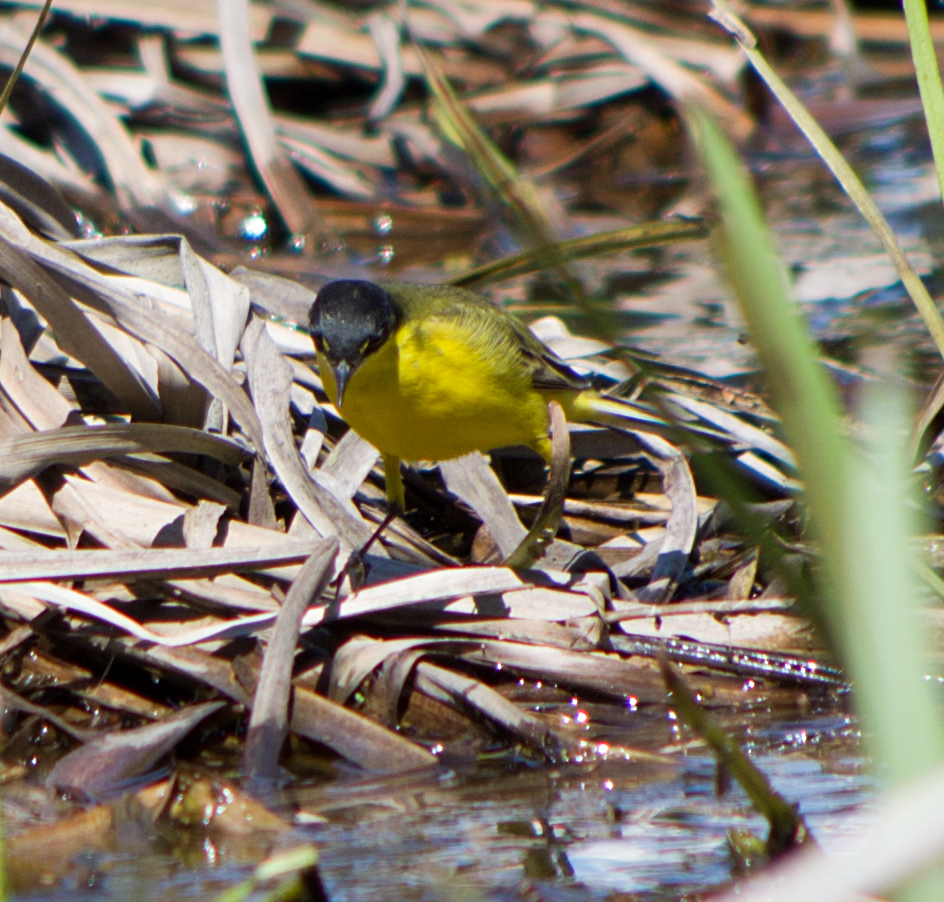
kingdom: Animalia
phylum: Chordata
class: Aves
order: Passeriformes
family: Motacillidae
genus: Motacilla
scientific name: Motacilla flava
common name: Western yellow wagtail
